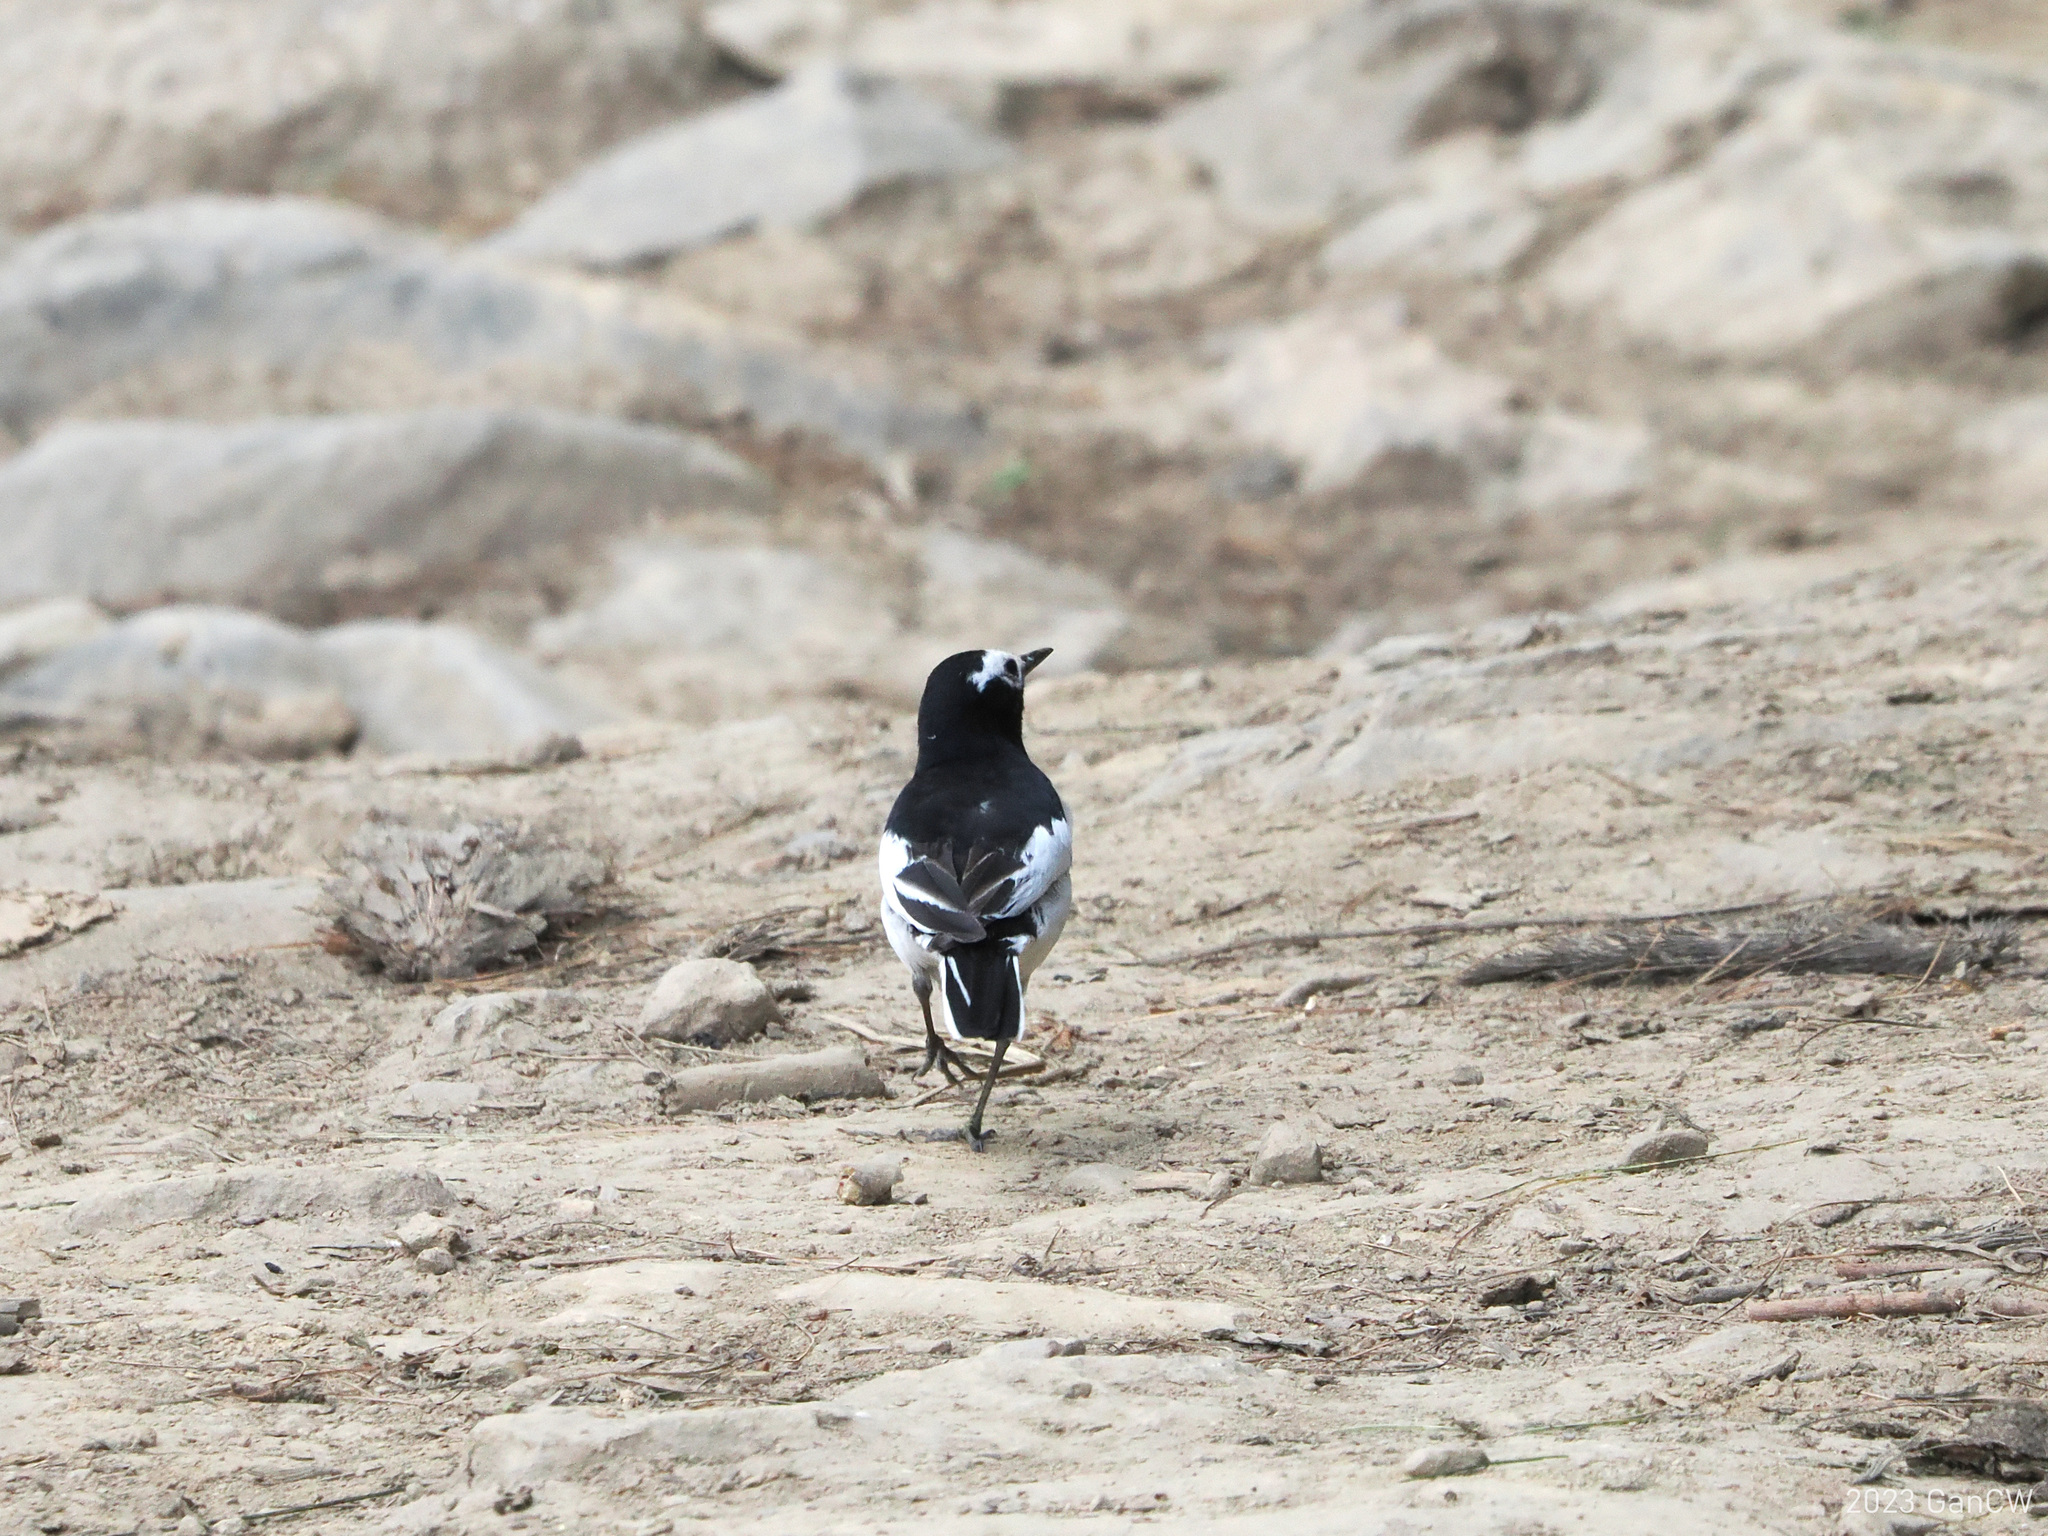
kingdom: Animalia
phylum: Chordata
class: Aves
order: Passeriformes
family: Motacillidae
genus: Motacilla
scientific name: Motacilla alba
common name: White wagtail
